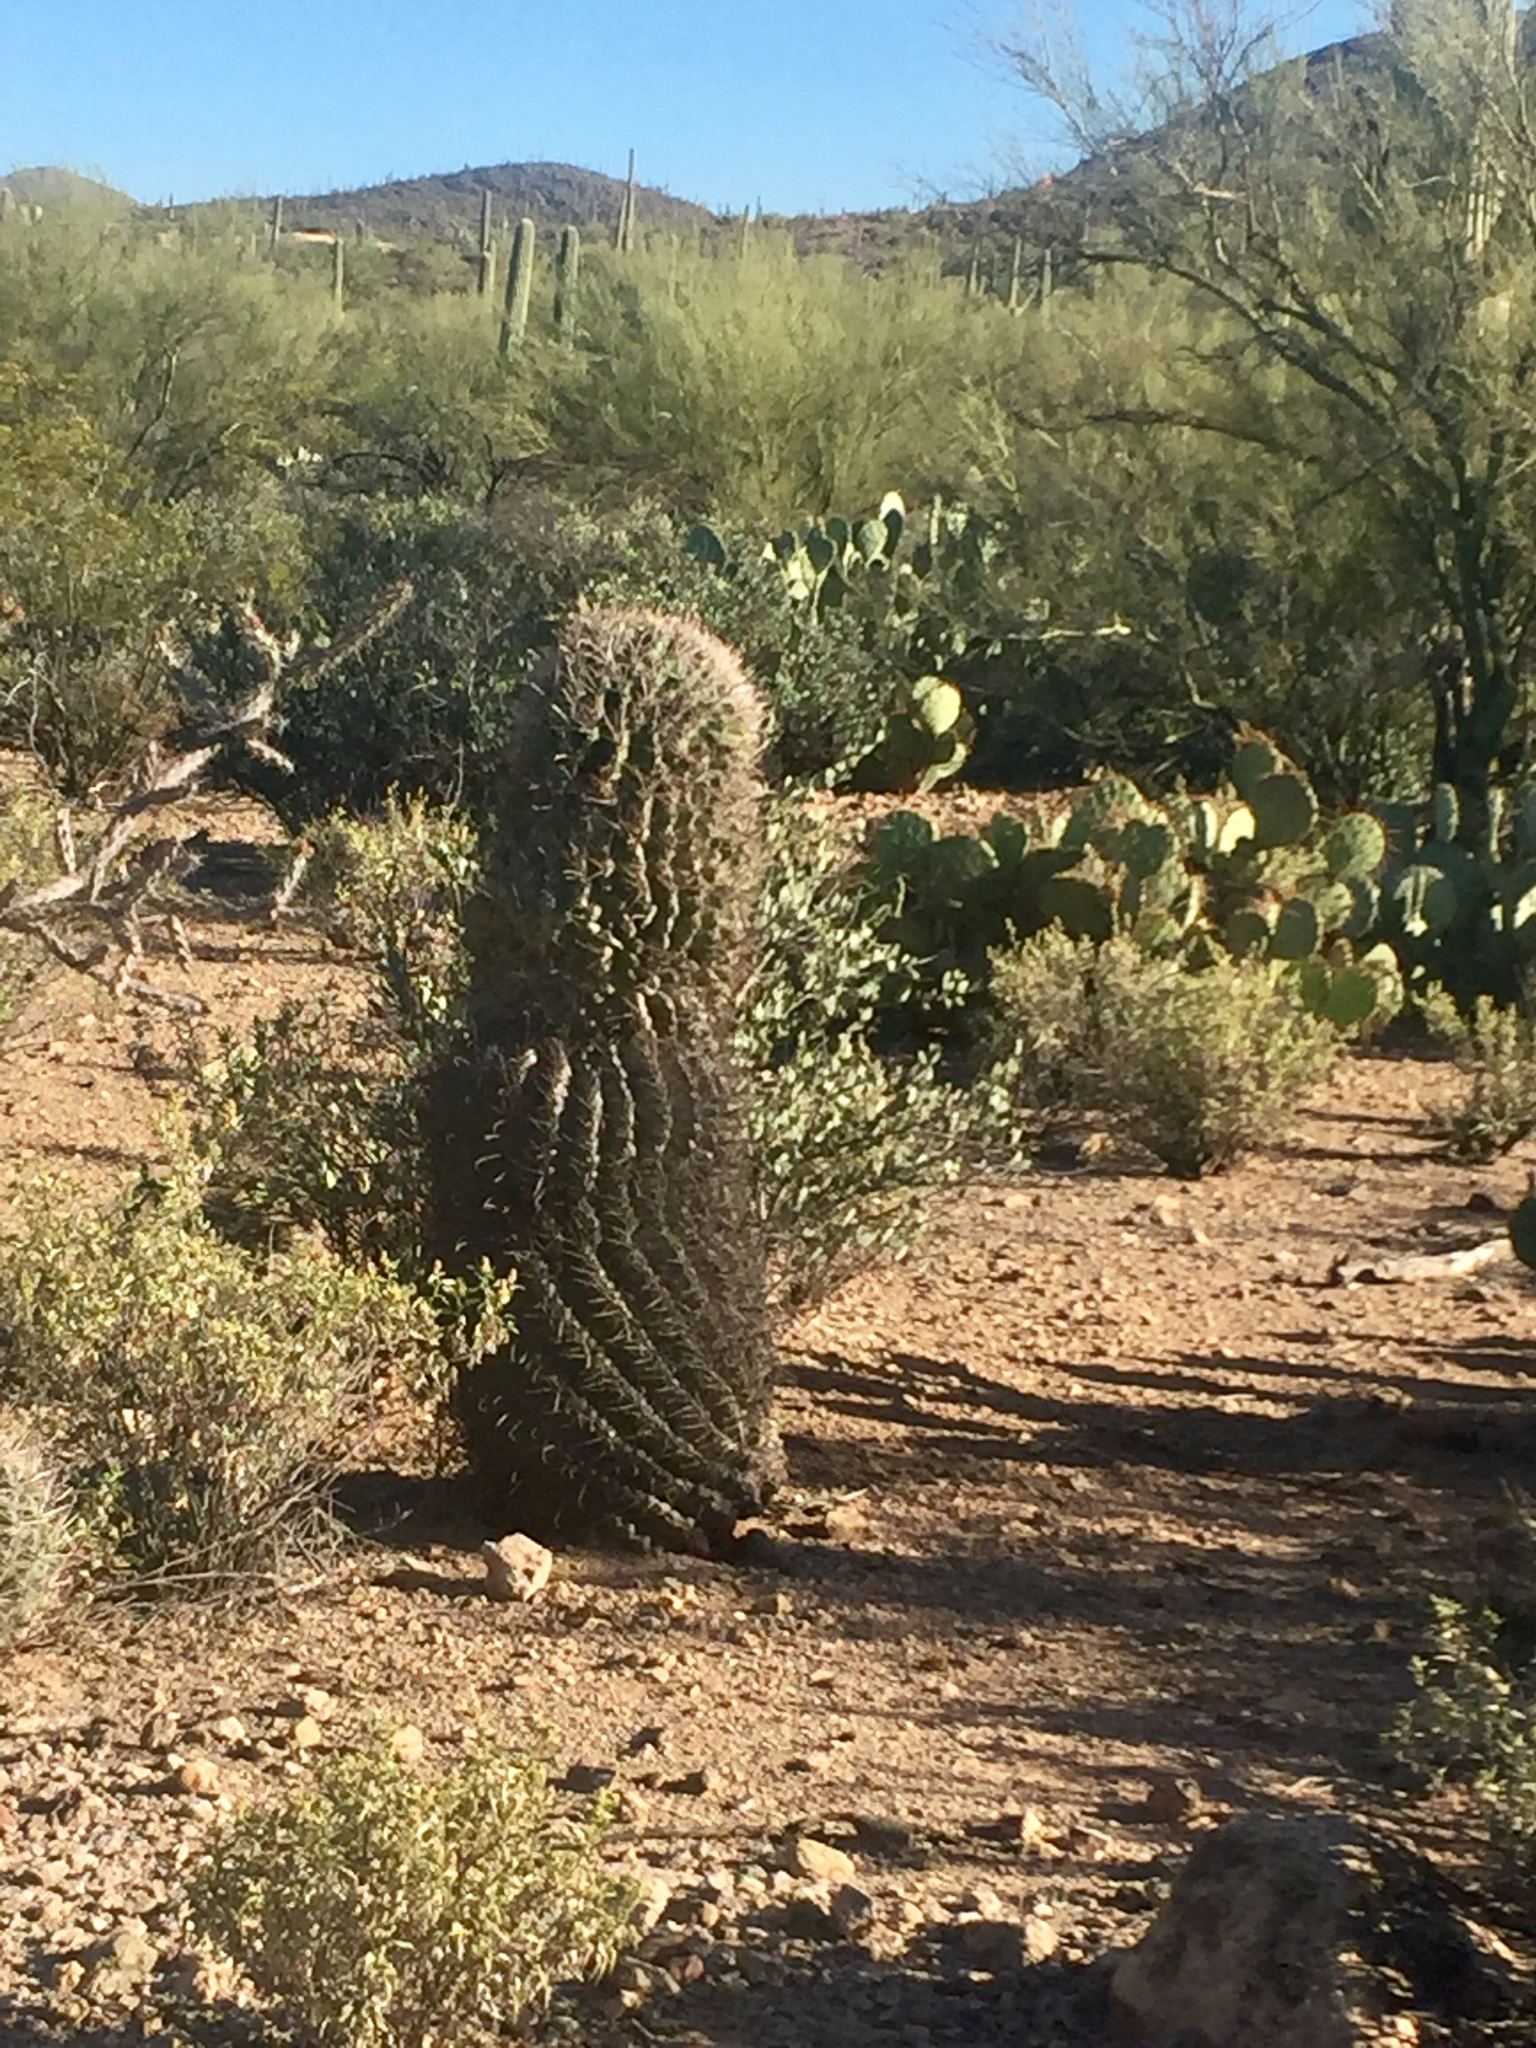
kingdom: Plantae
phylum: Tracheophyta
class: Magnoliopsida
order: Caryophyllales
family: Cactaceae
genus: Ferocactus
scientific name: Ferocactus wislizeni
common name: Candy barrel cactus
